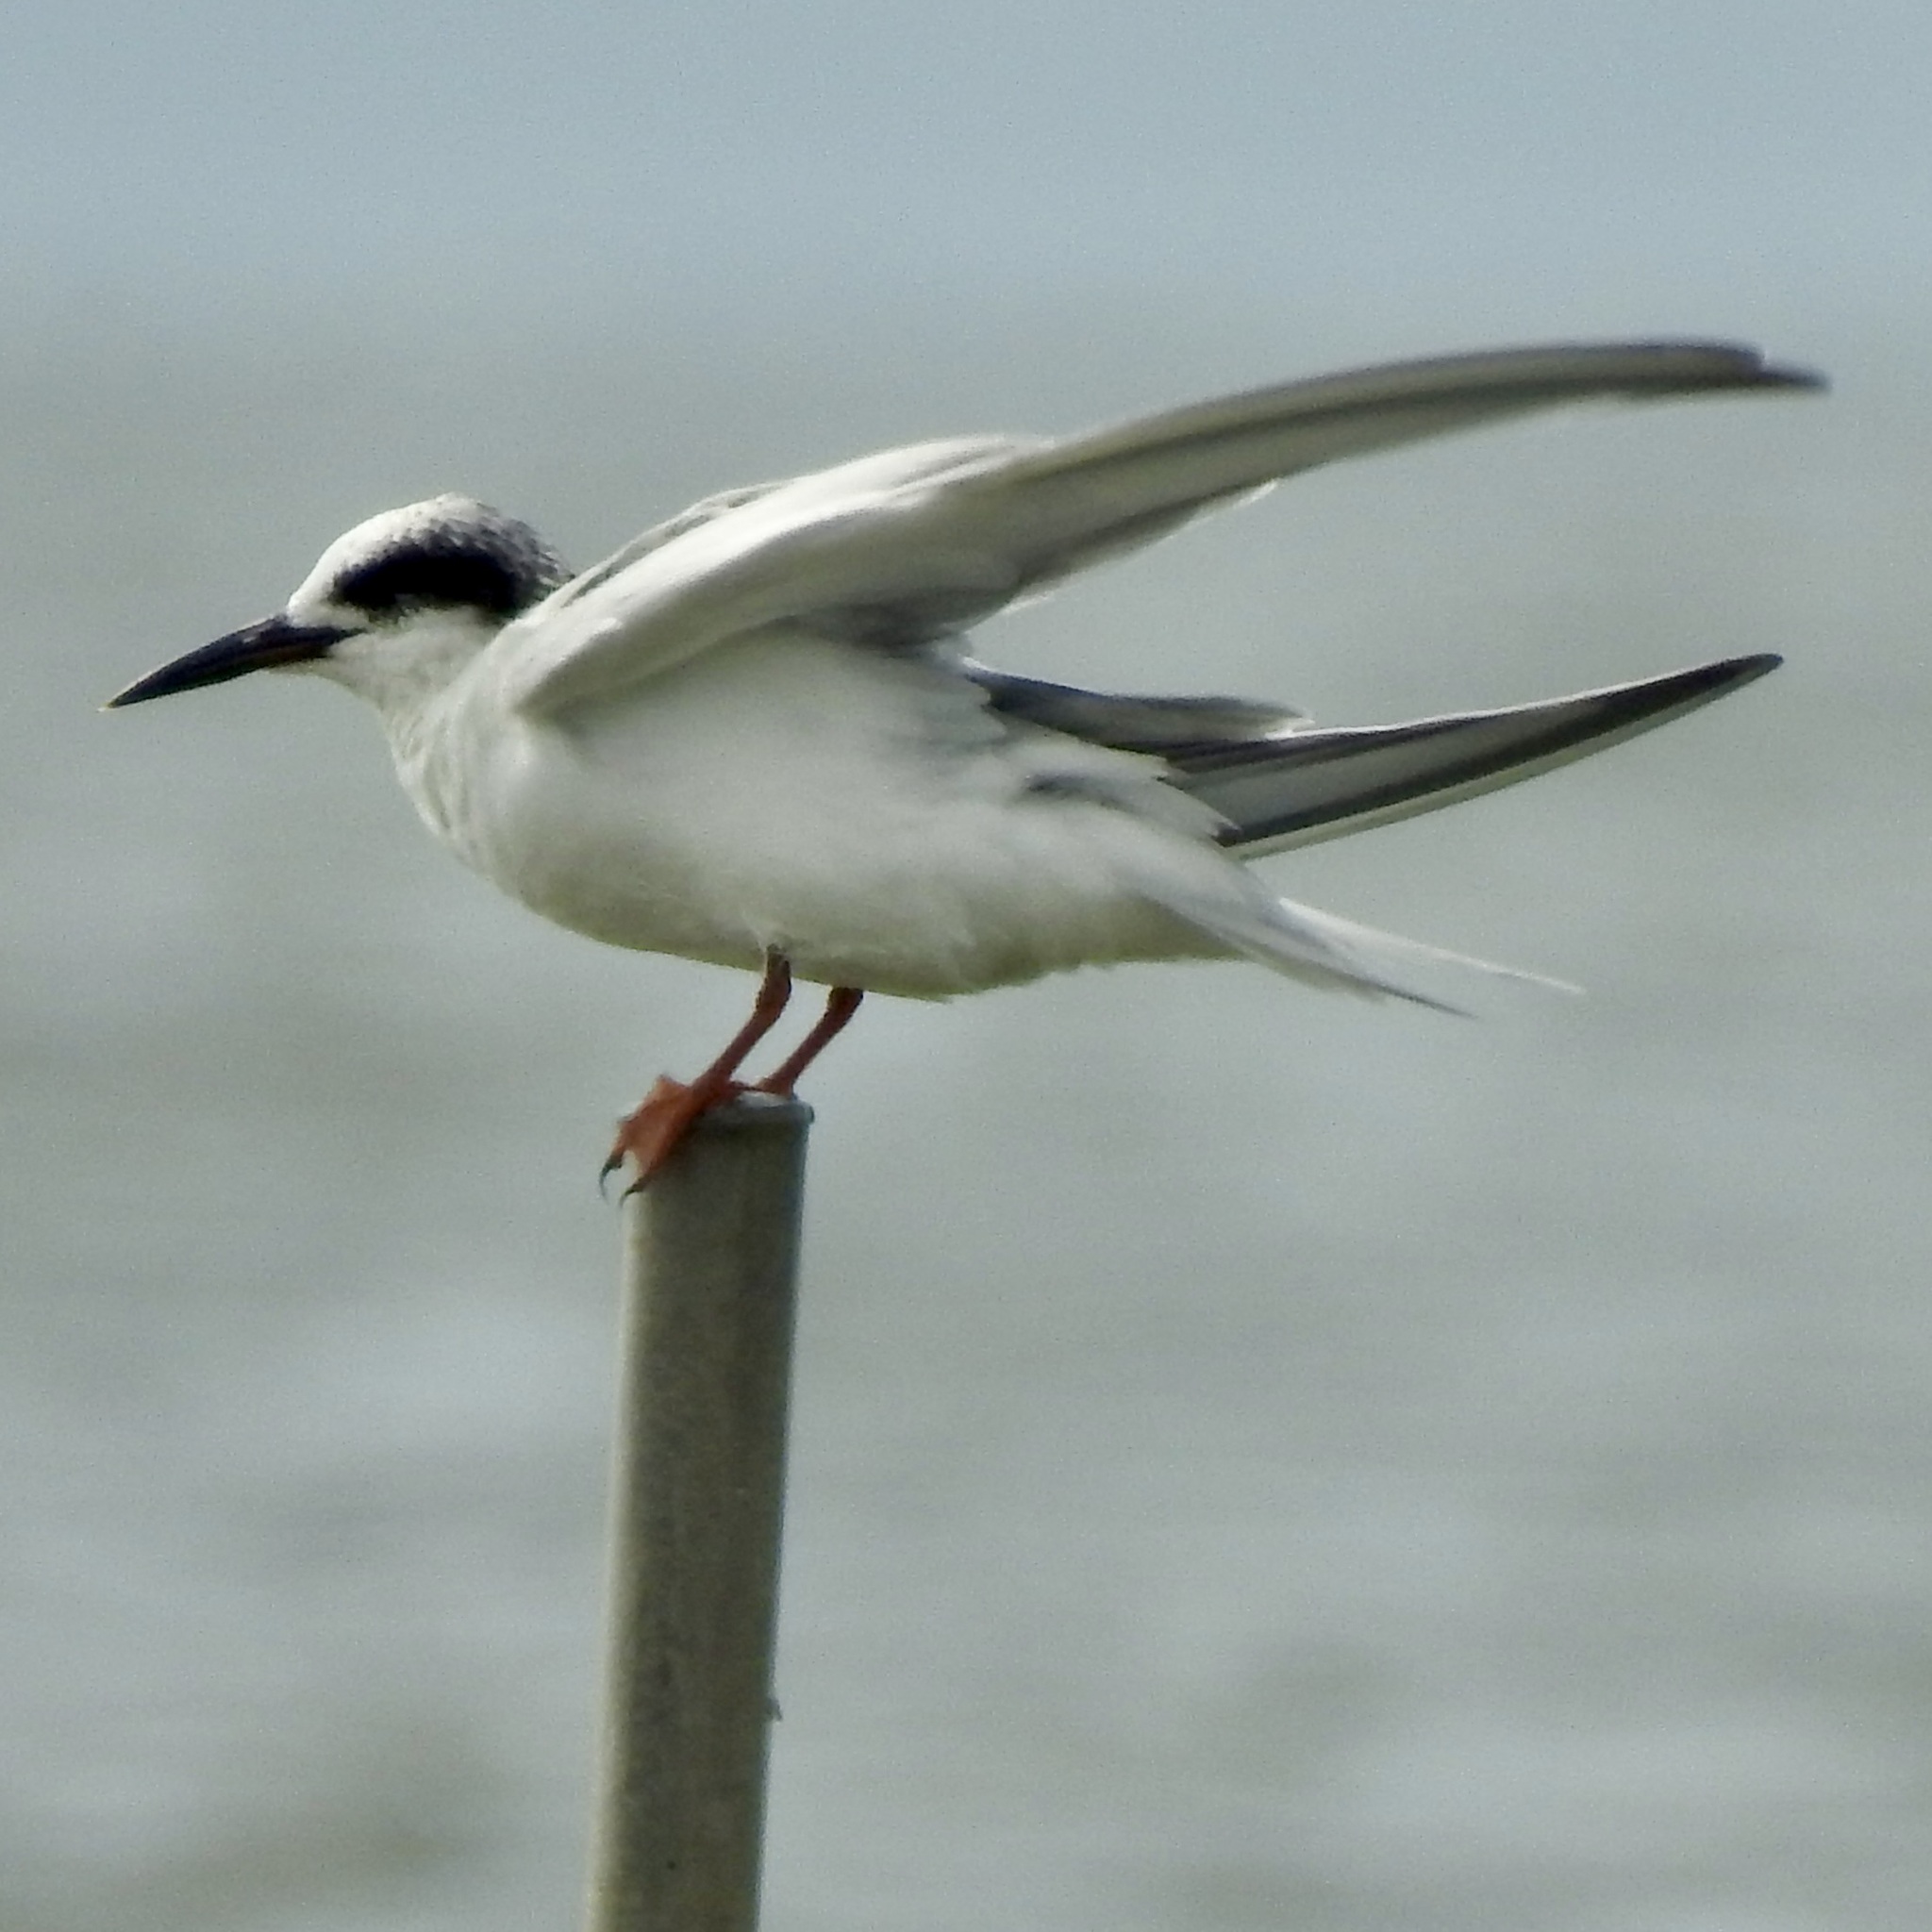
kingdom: Animalia
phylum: Chordata
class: Aves
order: Charadriiformes
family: Laridae
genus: Sterna
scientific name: Sterna forsteri
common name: Forster's tern
